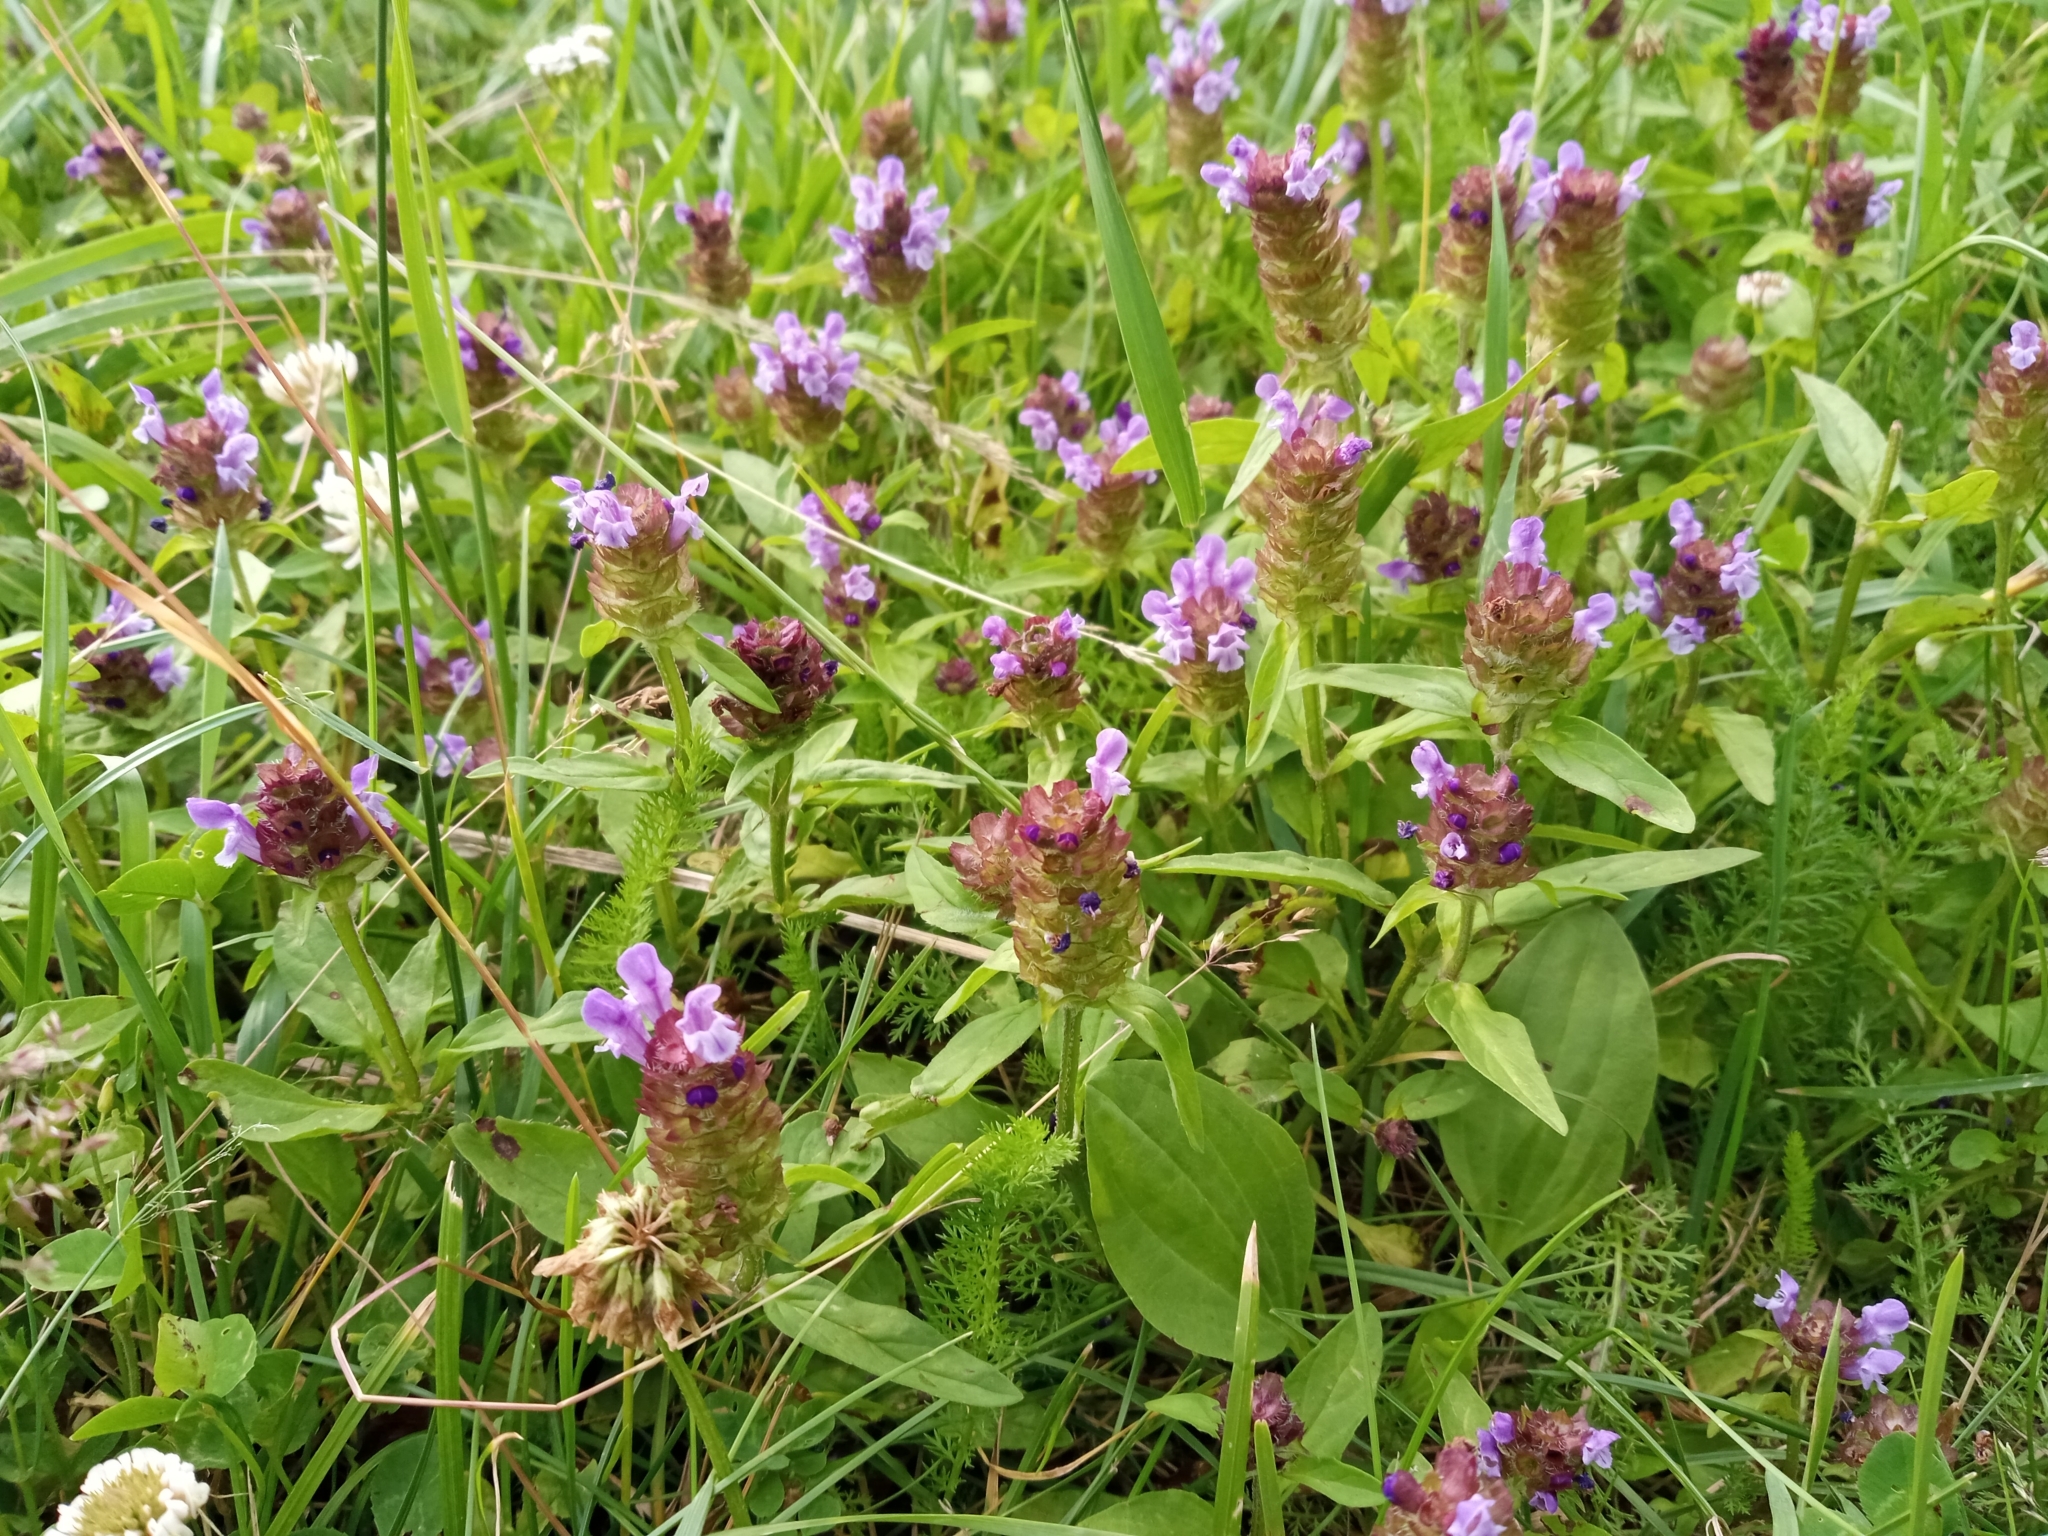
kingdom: Plantae
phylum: Tracheophyta
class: Magnoliopsida
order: Lamiales
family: Lamiaceae
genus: Prunella
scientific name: Prunella vulgaris
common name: Heal-all
